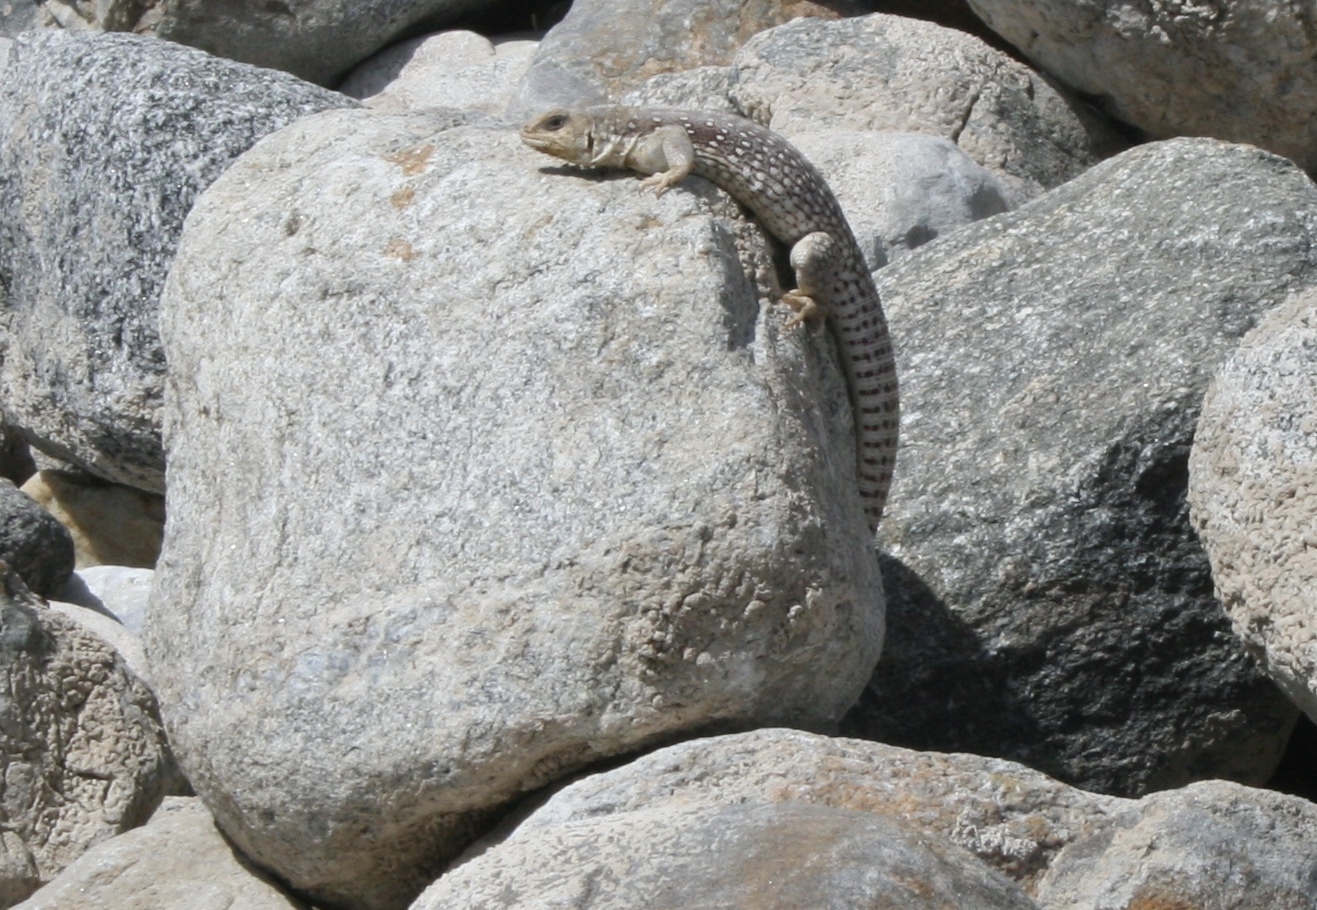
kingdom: Animalia
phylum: Chordata
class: Squamata
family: Iguanidae
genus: Dipsosaurus
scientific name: Dipsosaurus dorsalis
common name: Desert iguana
